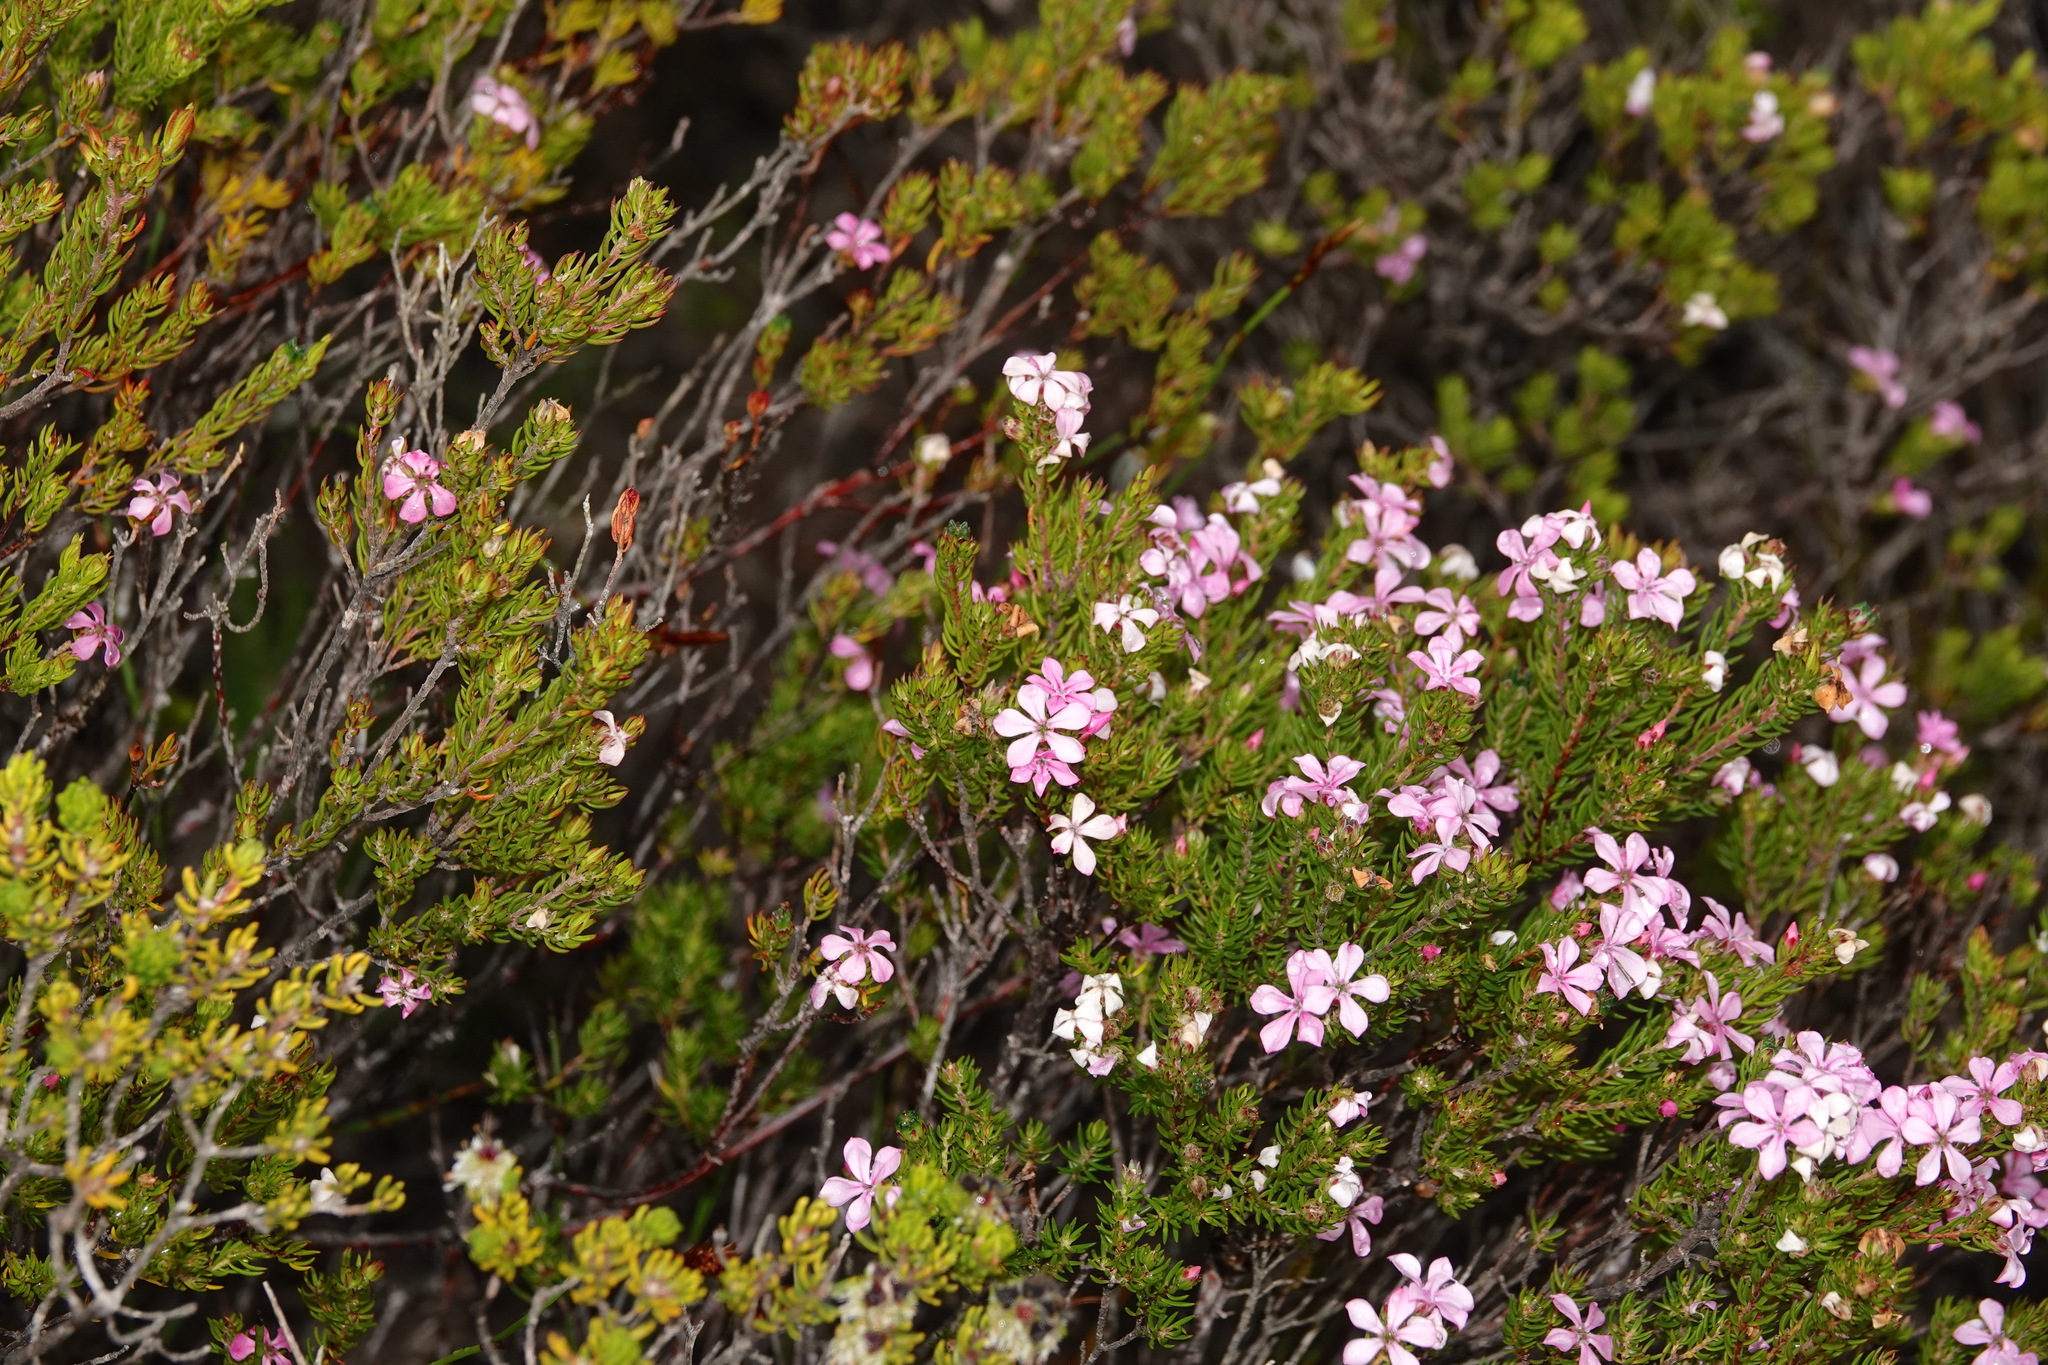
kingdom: Plantae
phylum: Tracheophyta
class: Magnoliopsida
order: Sapindales
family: Rutaceae
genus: Acmadenia
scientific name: Acmadenia obtusata
